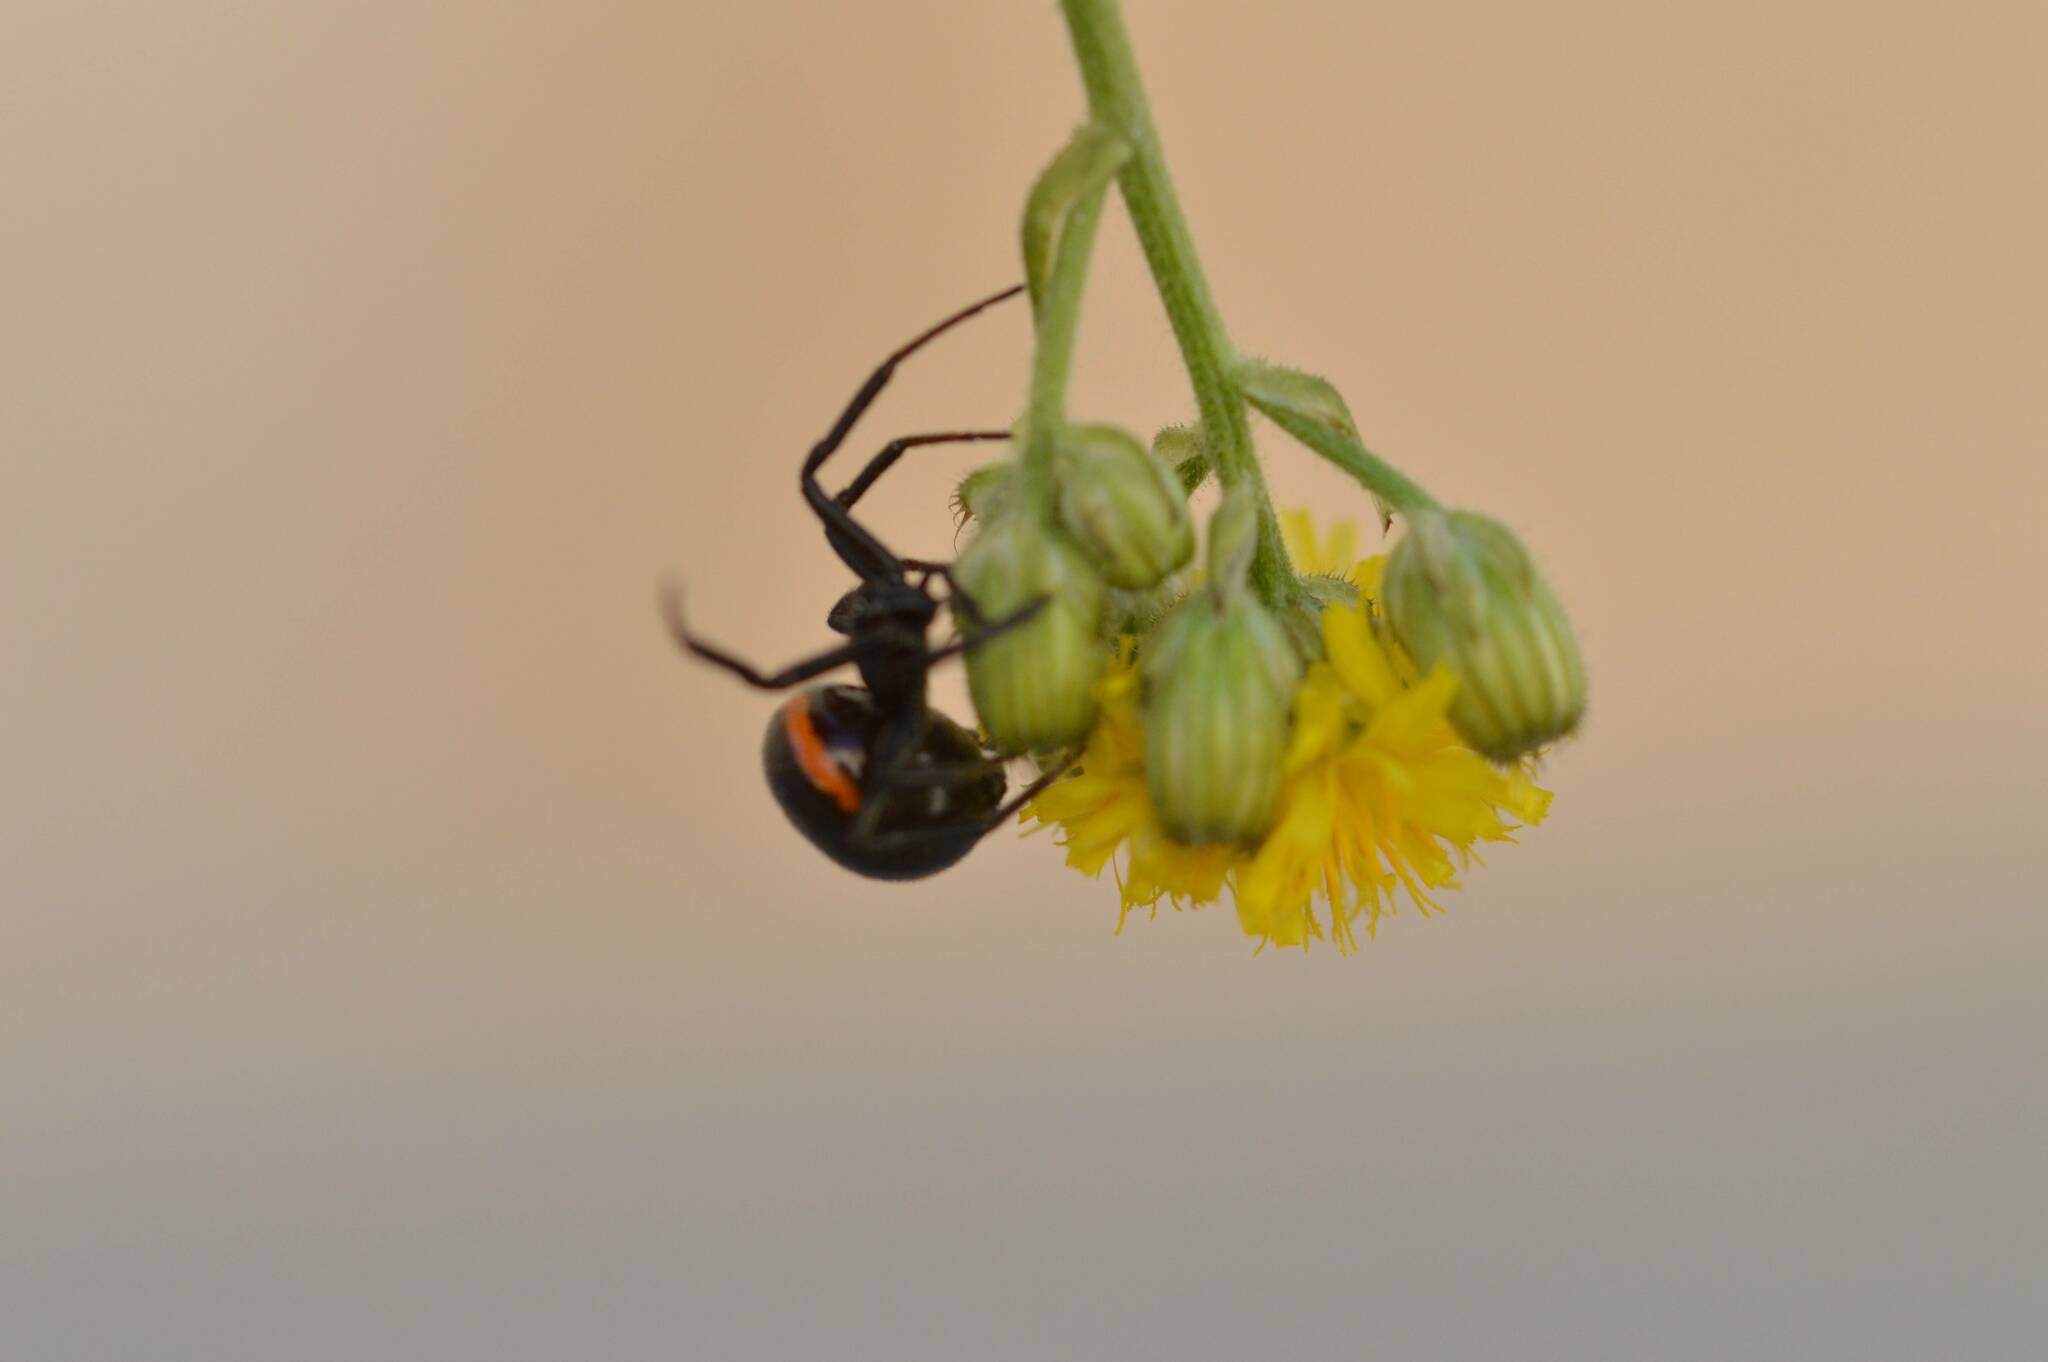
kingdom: Animalia
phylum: Arthropoda
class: Arachnida
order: Araneae
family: Theridiidae
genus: Steatoda
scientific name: Steatoda paykulliana
